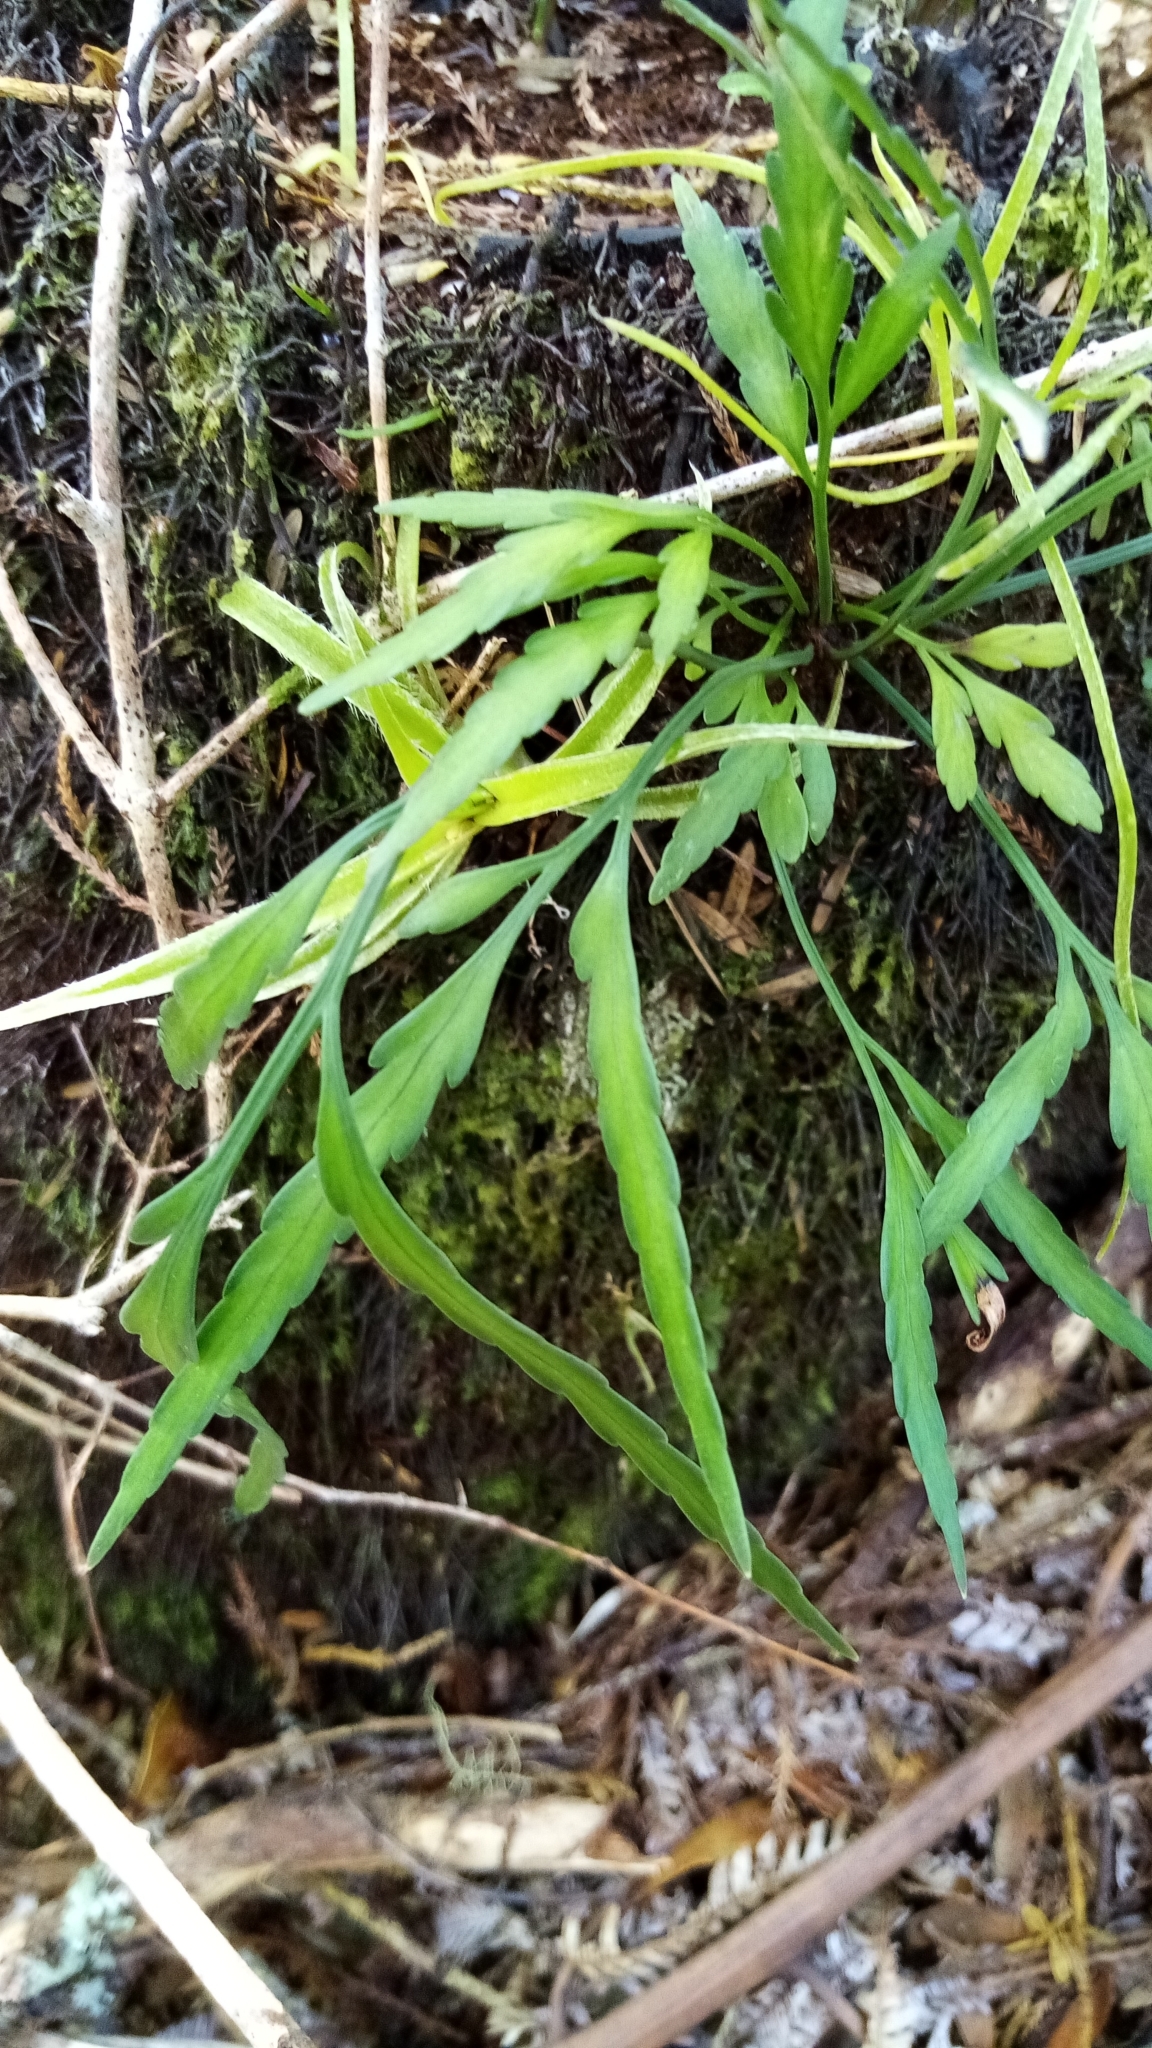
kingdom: Plantae
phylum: Tracheophyta
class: Polypodiopsida
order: Polypodiales
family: Aspleniaceae
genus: Asplenium
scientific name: Asplenium flaccidum
